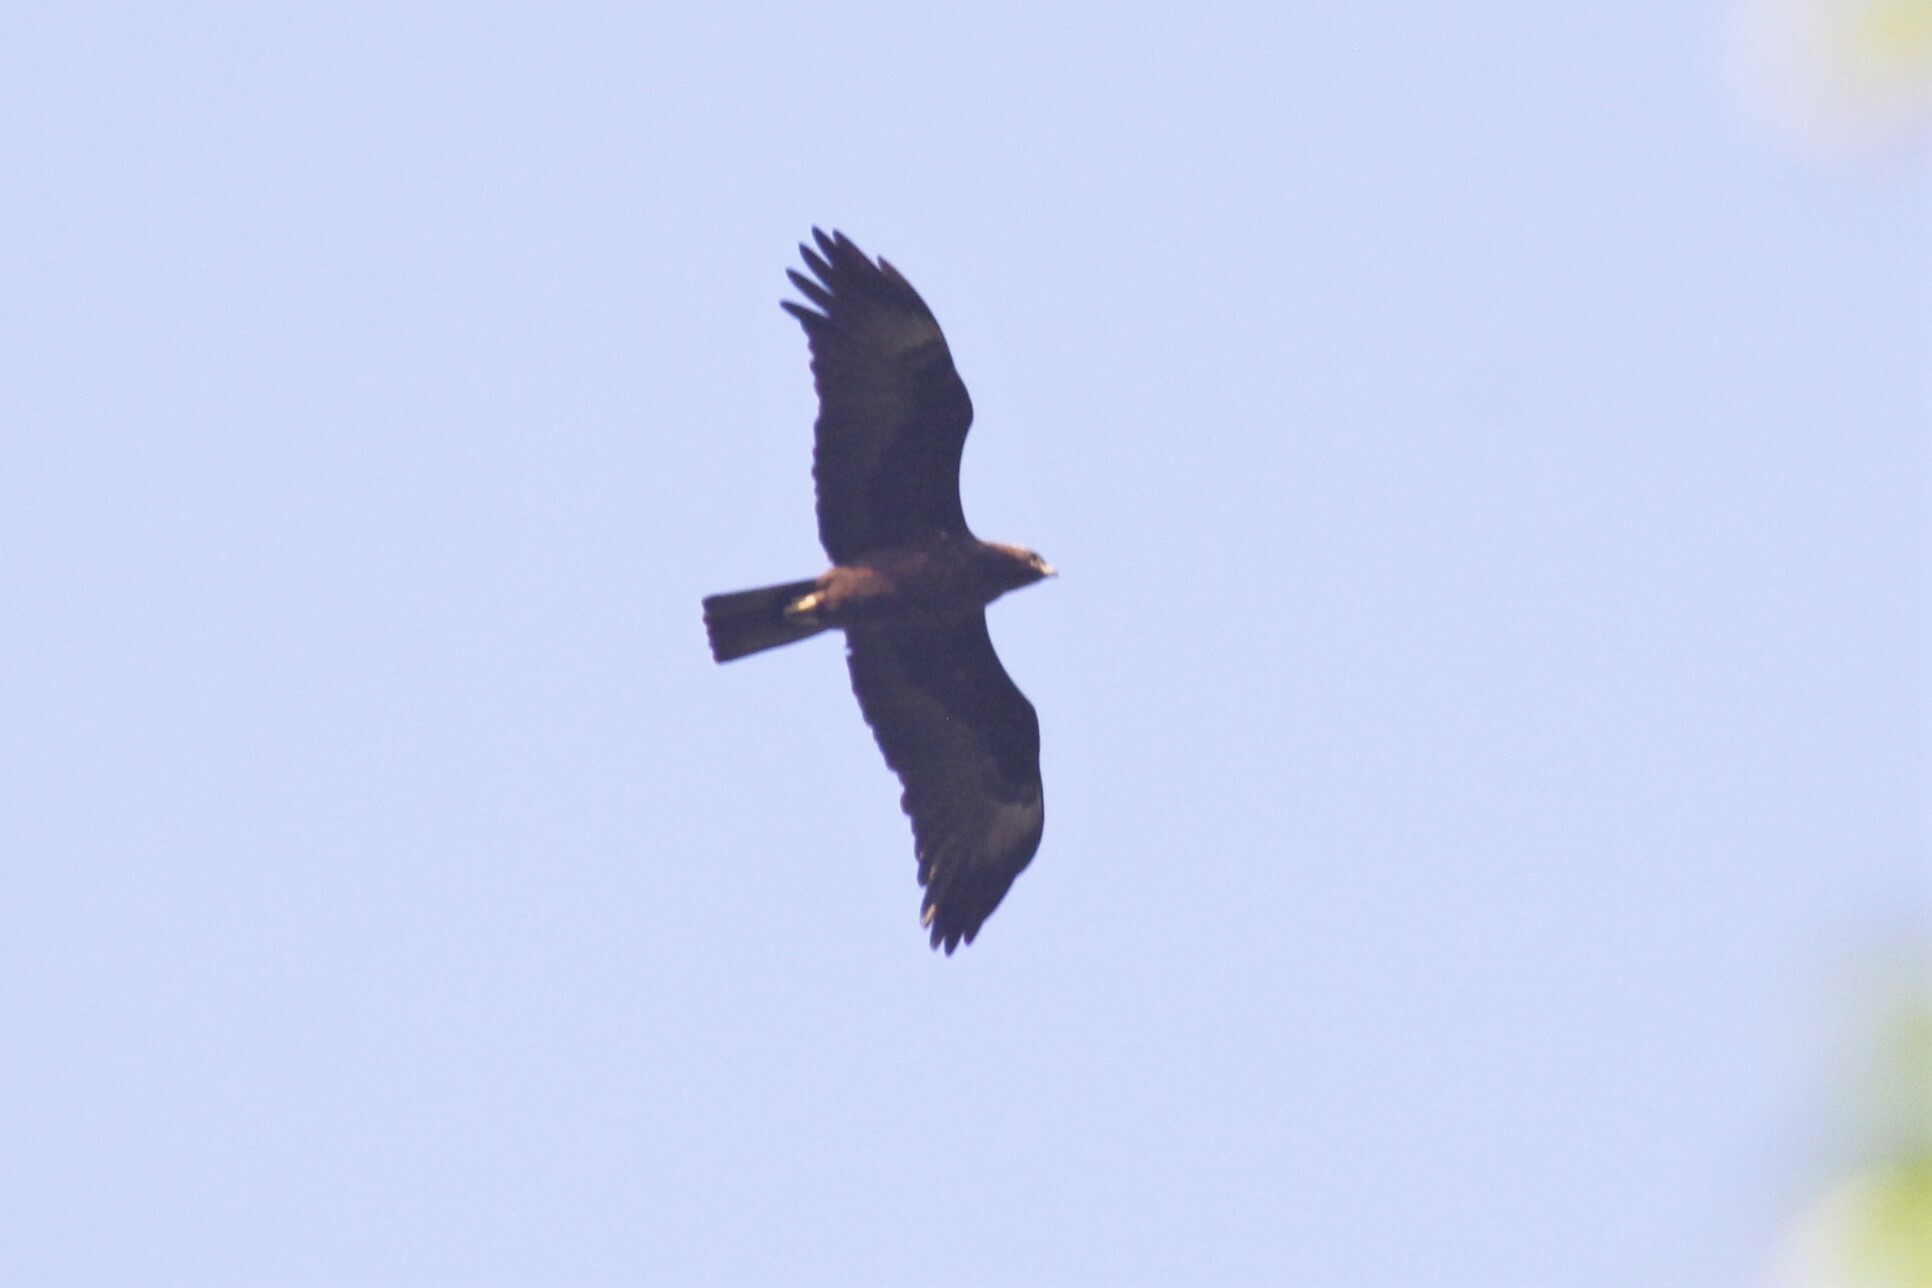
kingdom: Animalia
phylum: Chordata
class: Aves
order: Accipitriformes
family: Accipitridae
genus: Hieraaetus
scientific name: Hieraaetus wahlbergi
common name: Wahlberg's eagle
